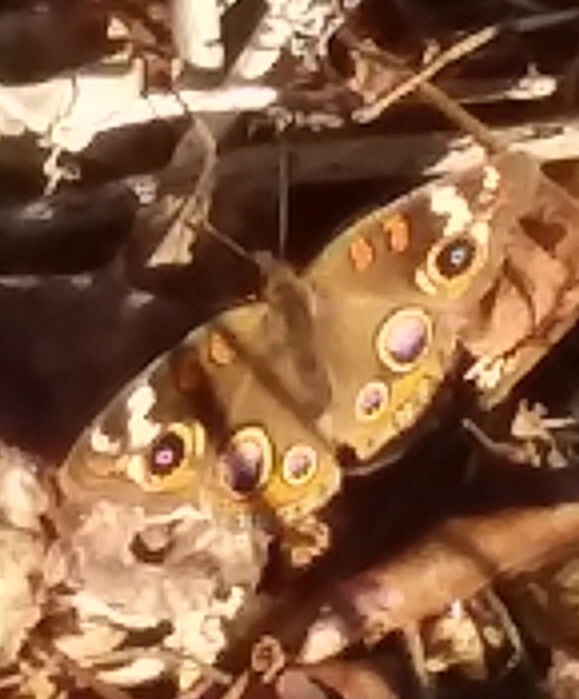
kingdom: Animalia
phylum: Arthropoda
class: Insecta
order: Lepidoptera
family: Nymphalidae
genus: Junonia
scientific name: Junonia coenia
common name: Common buckeye
